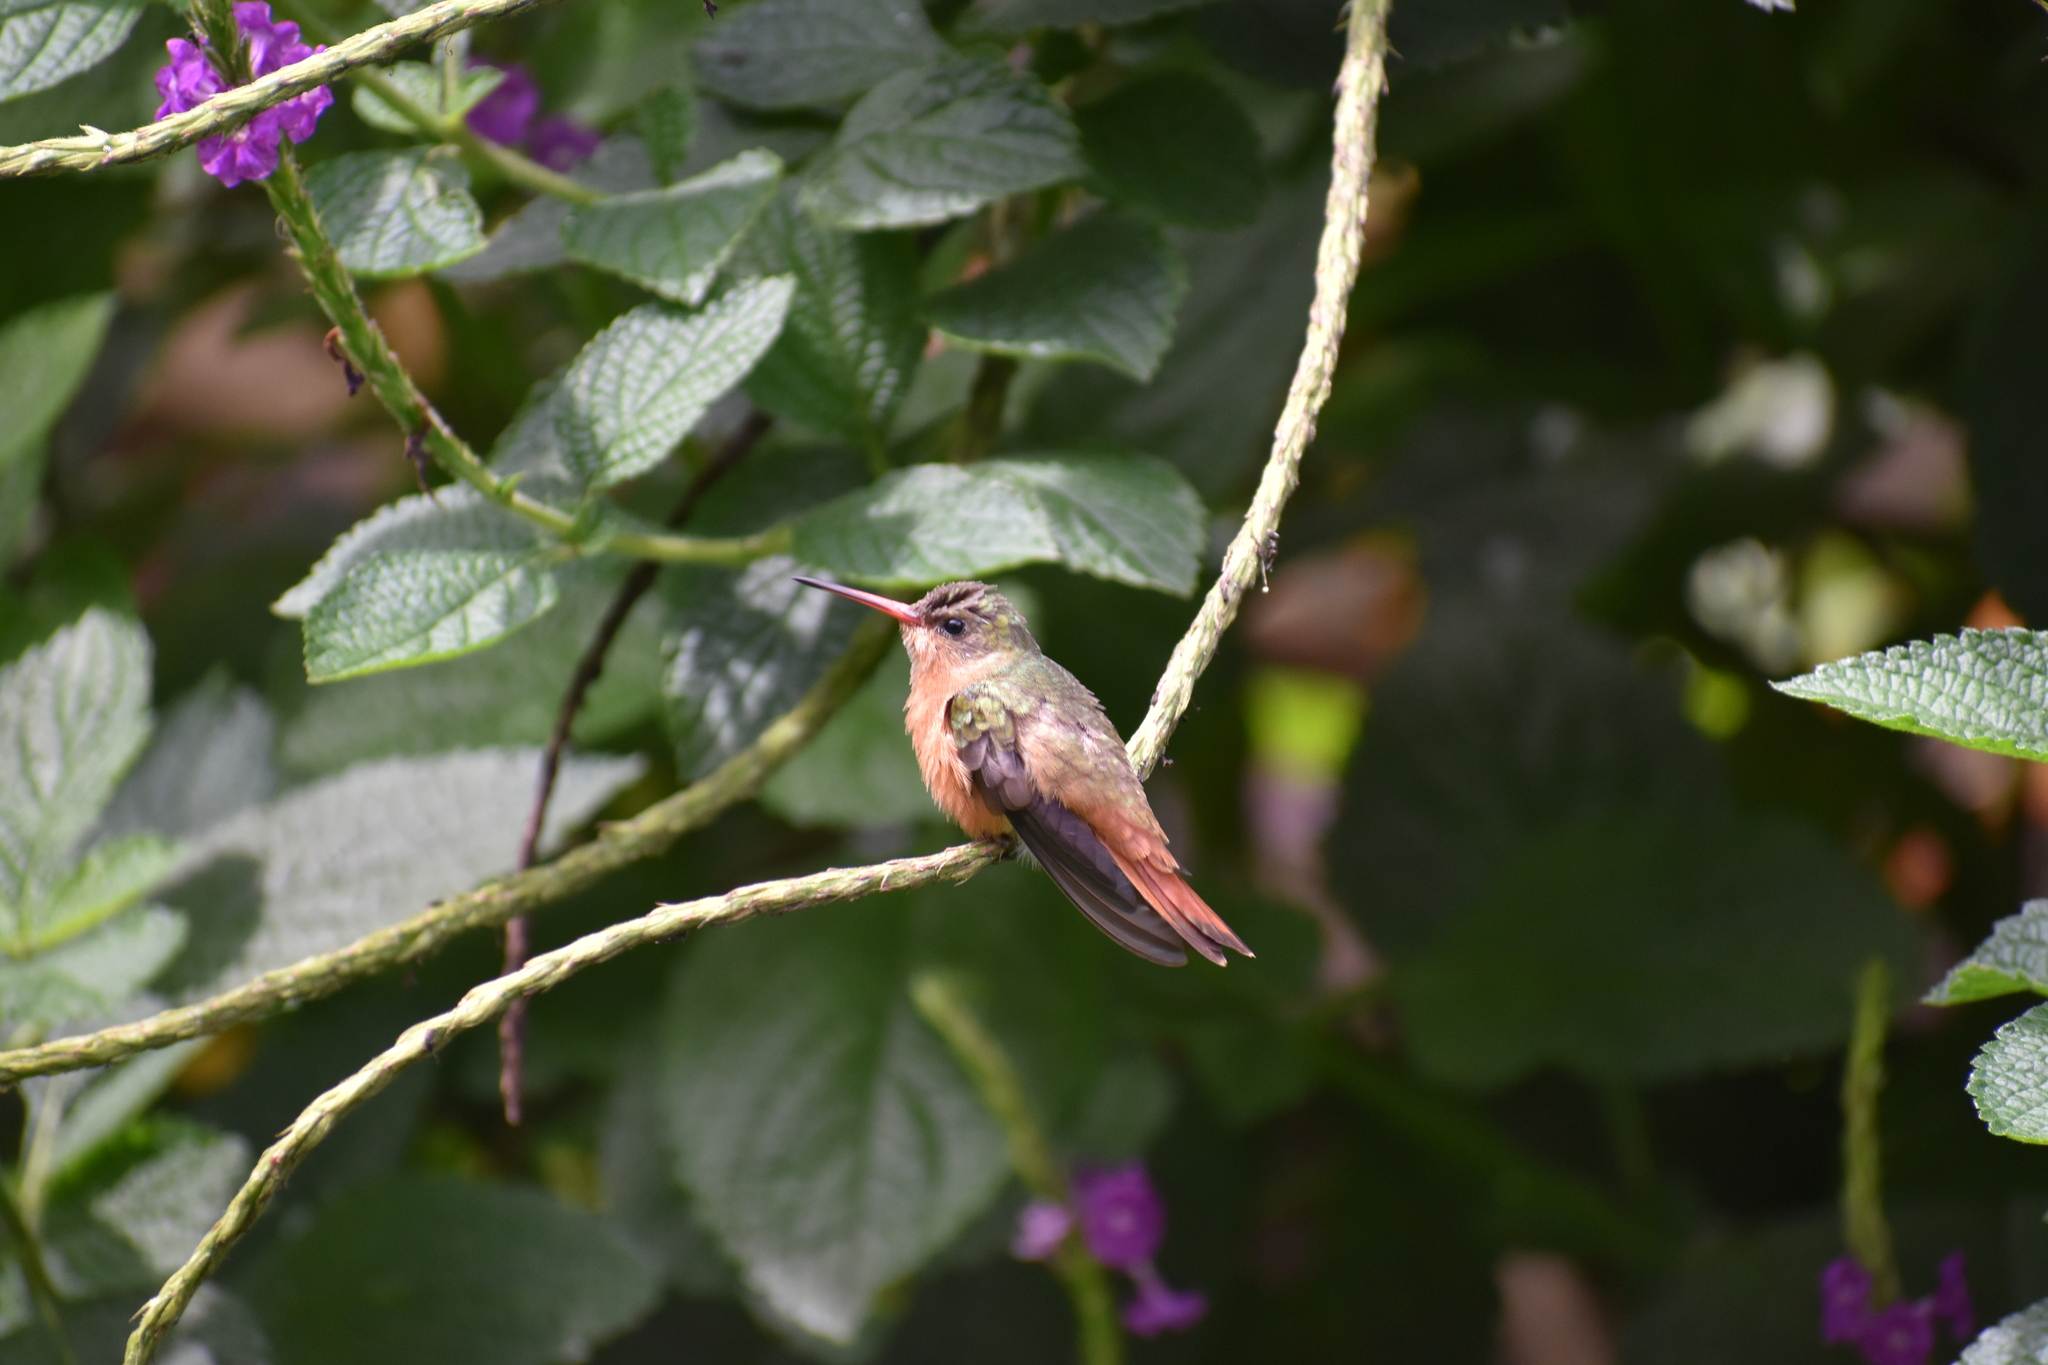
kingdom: Animalia
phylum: Chordata
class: Aves
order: Apodiformes
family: Trochilidae
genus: Amazilia
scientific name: Amazilia rutila
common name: Cinnamon hummingbird
